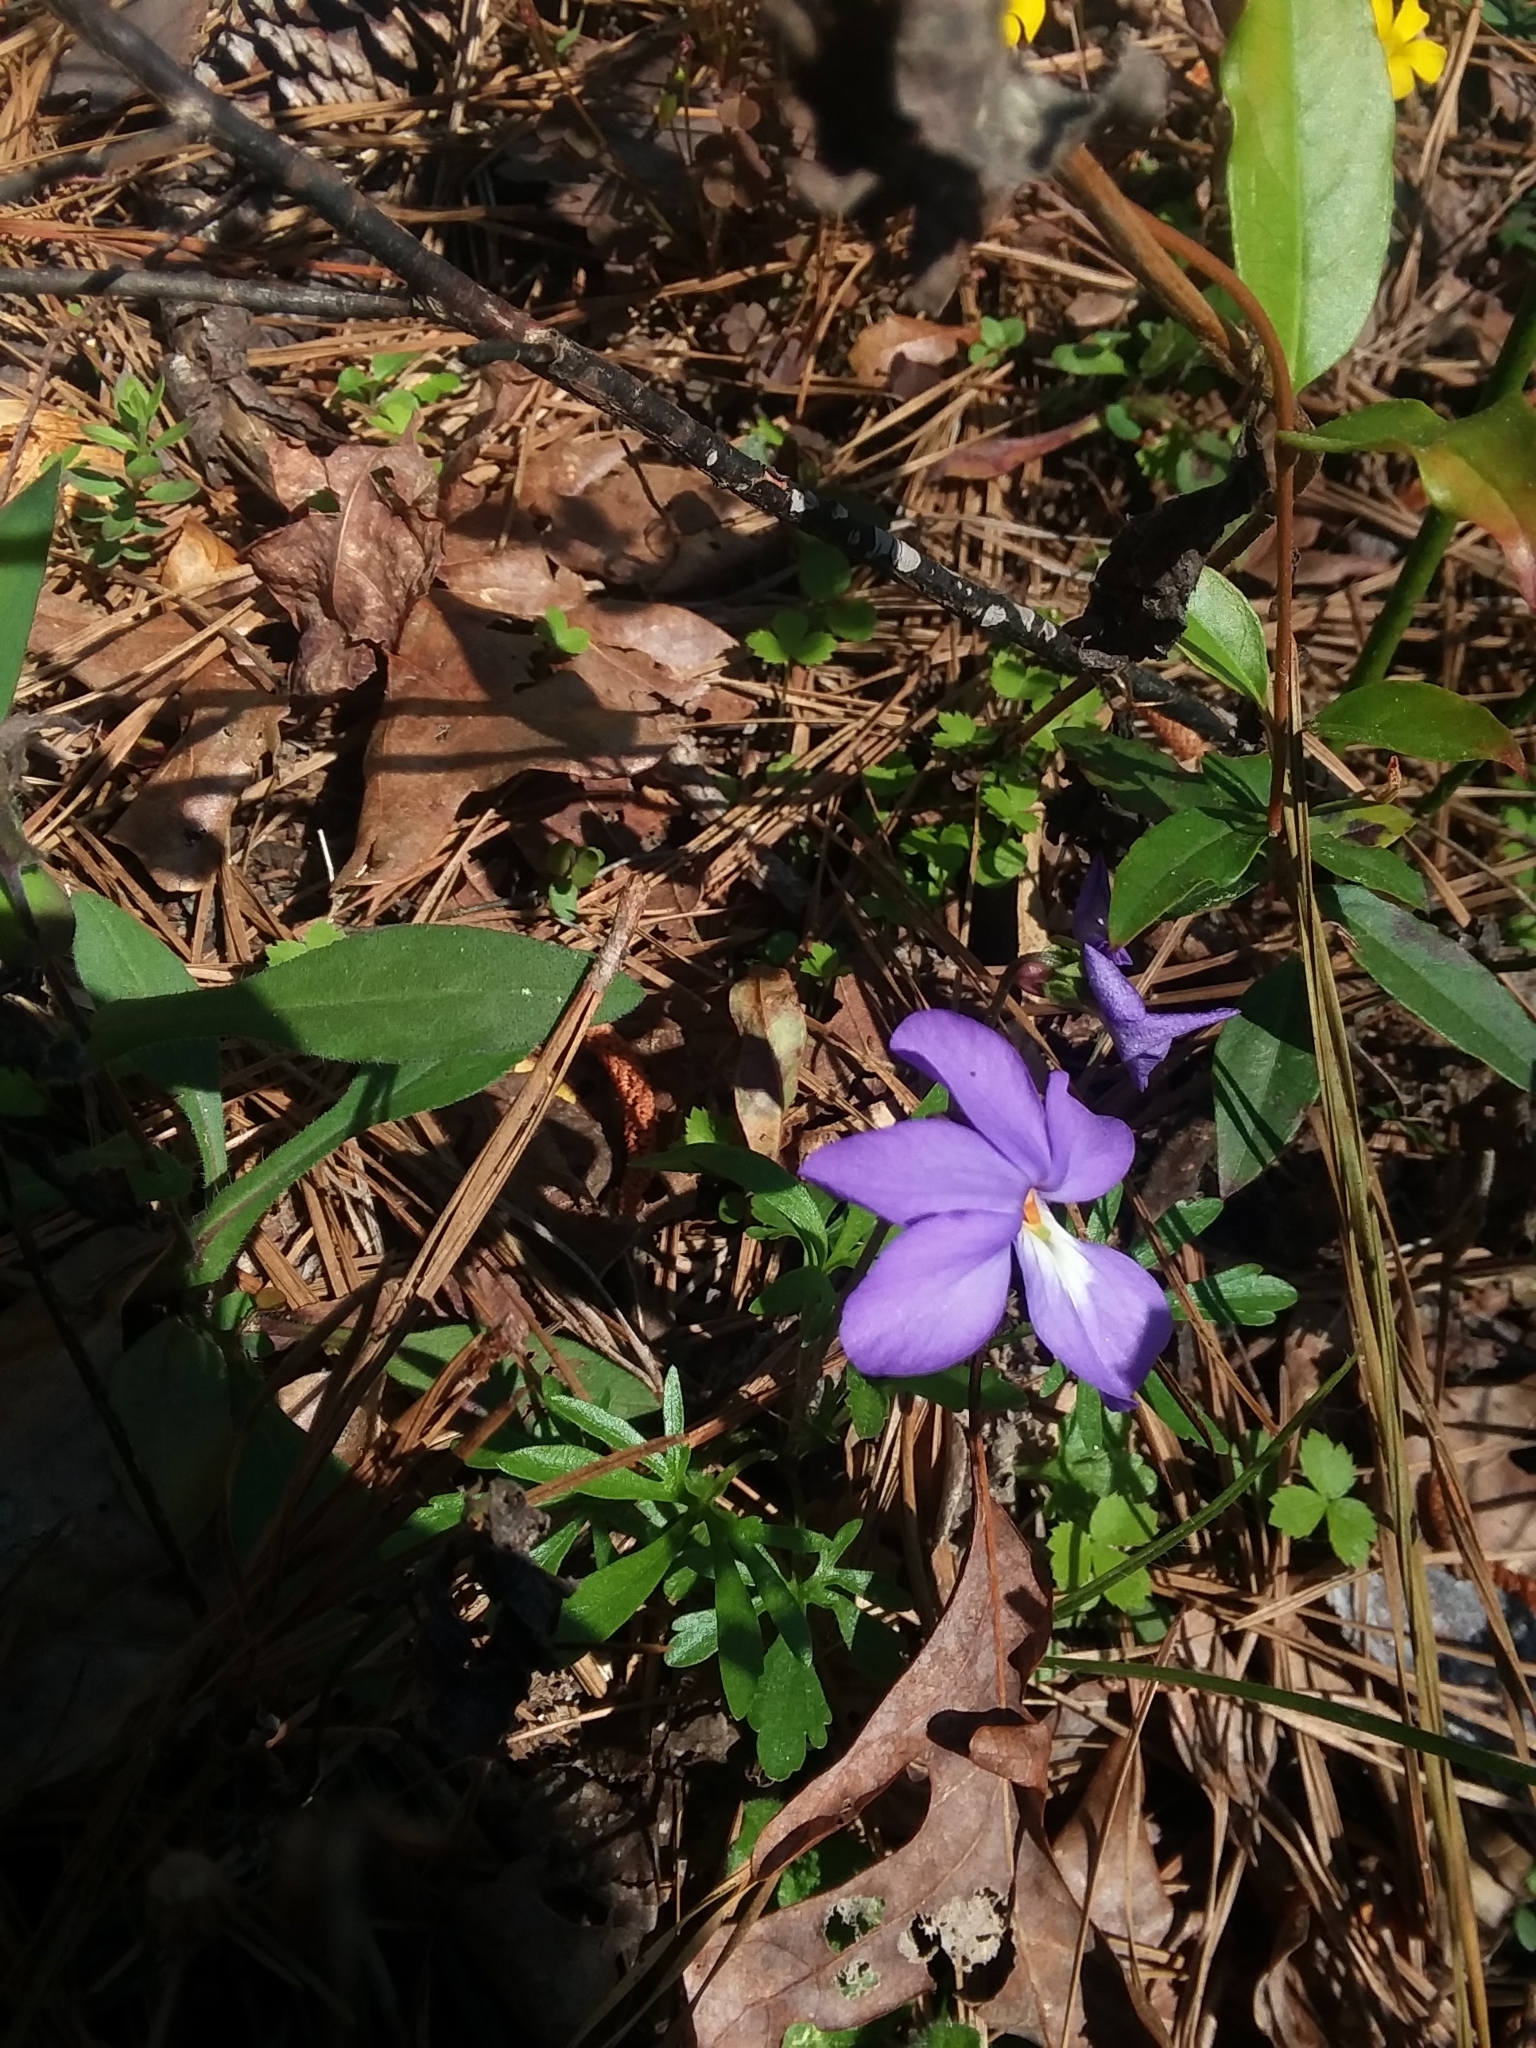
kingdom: Plantae
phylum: Tracheophyta
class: Magnoliopsida
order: Malpighiales
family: Violaceae
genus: Viola
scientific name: Viola pedata
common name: Pansy violet
